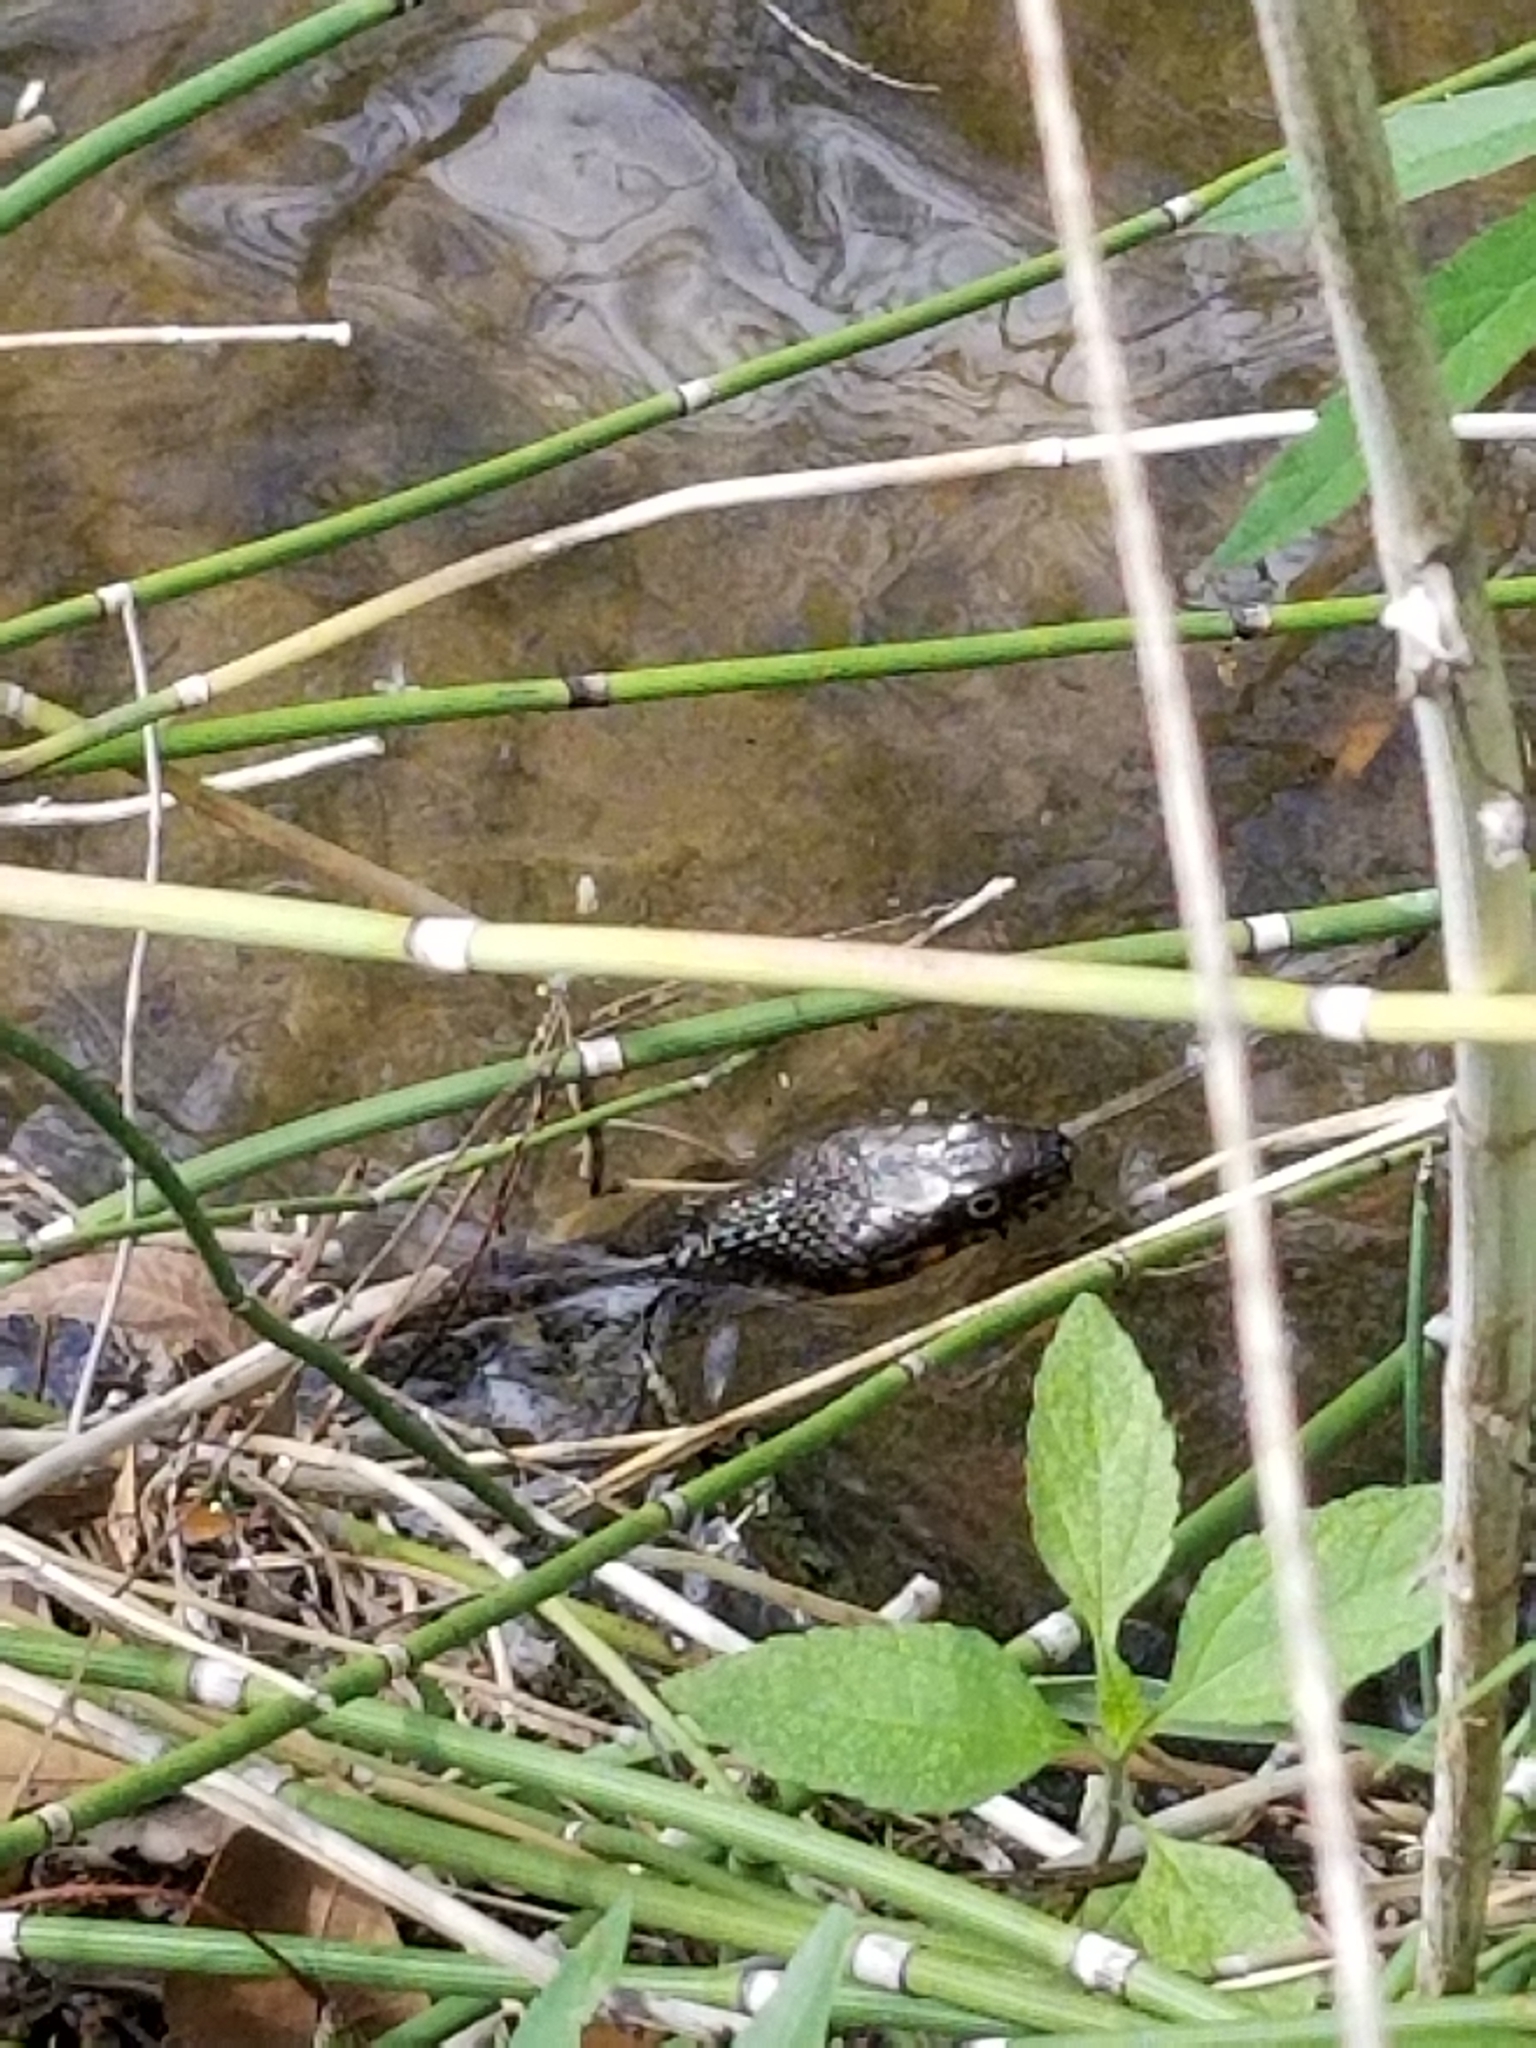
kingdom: Animalia
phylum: Chordata
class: Squamata
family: Colubridae
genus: Nerodia
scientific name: Nerodia erythrogaster
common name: Plainbelly water snake
